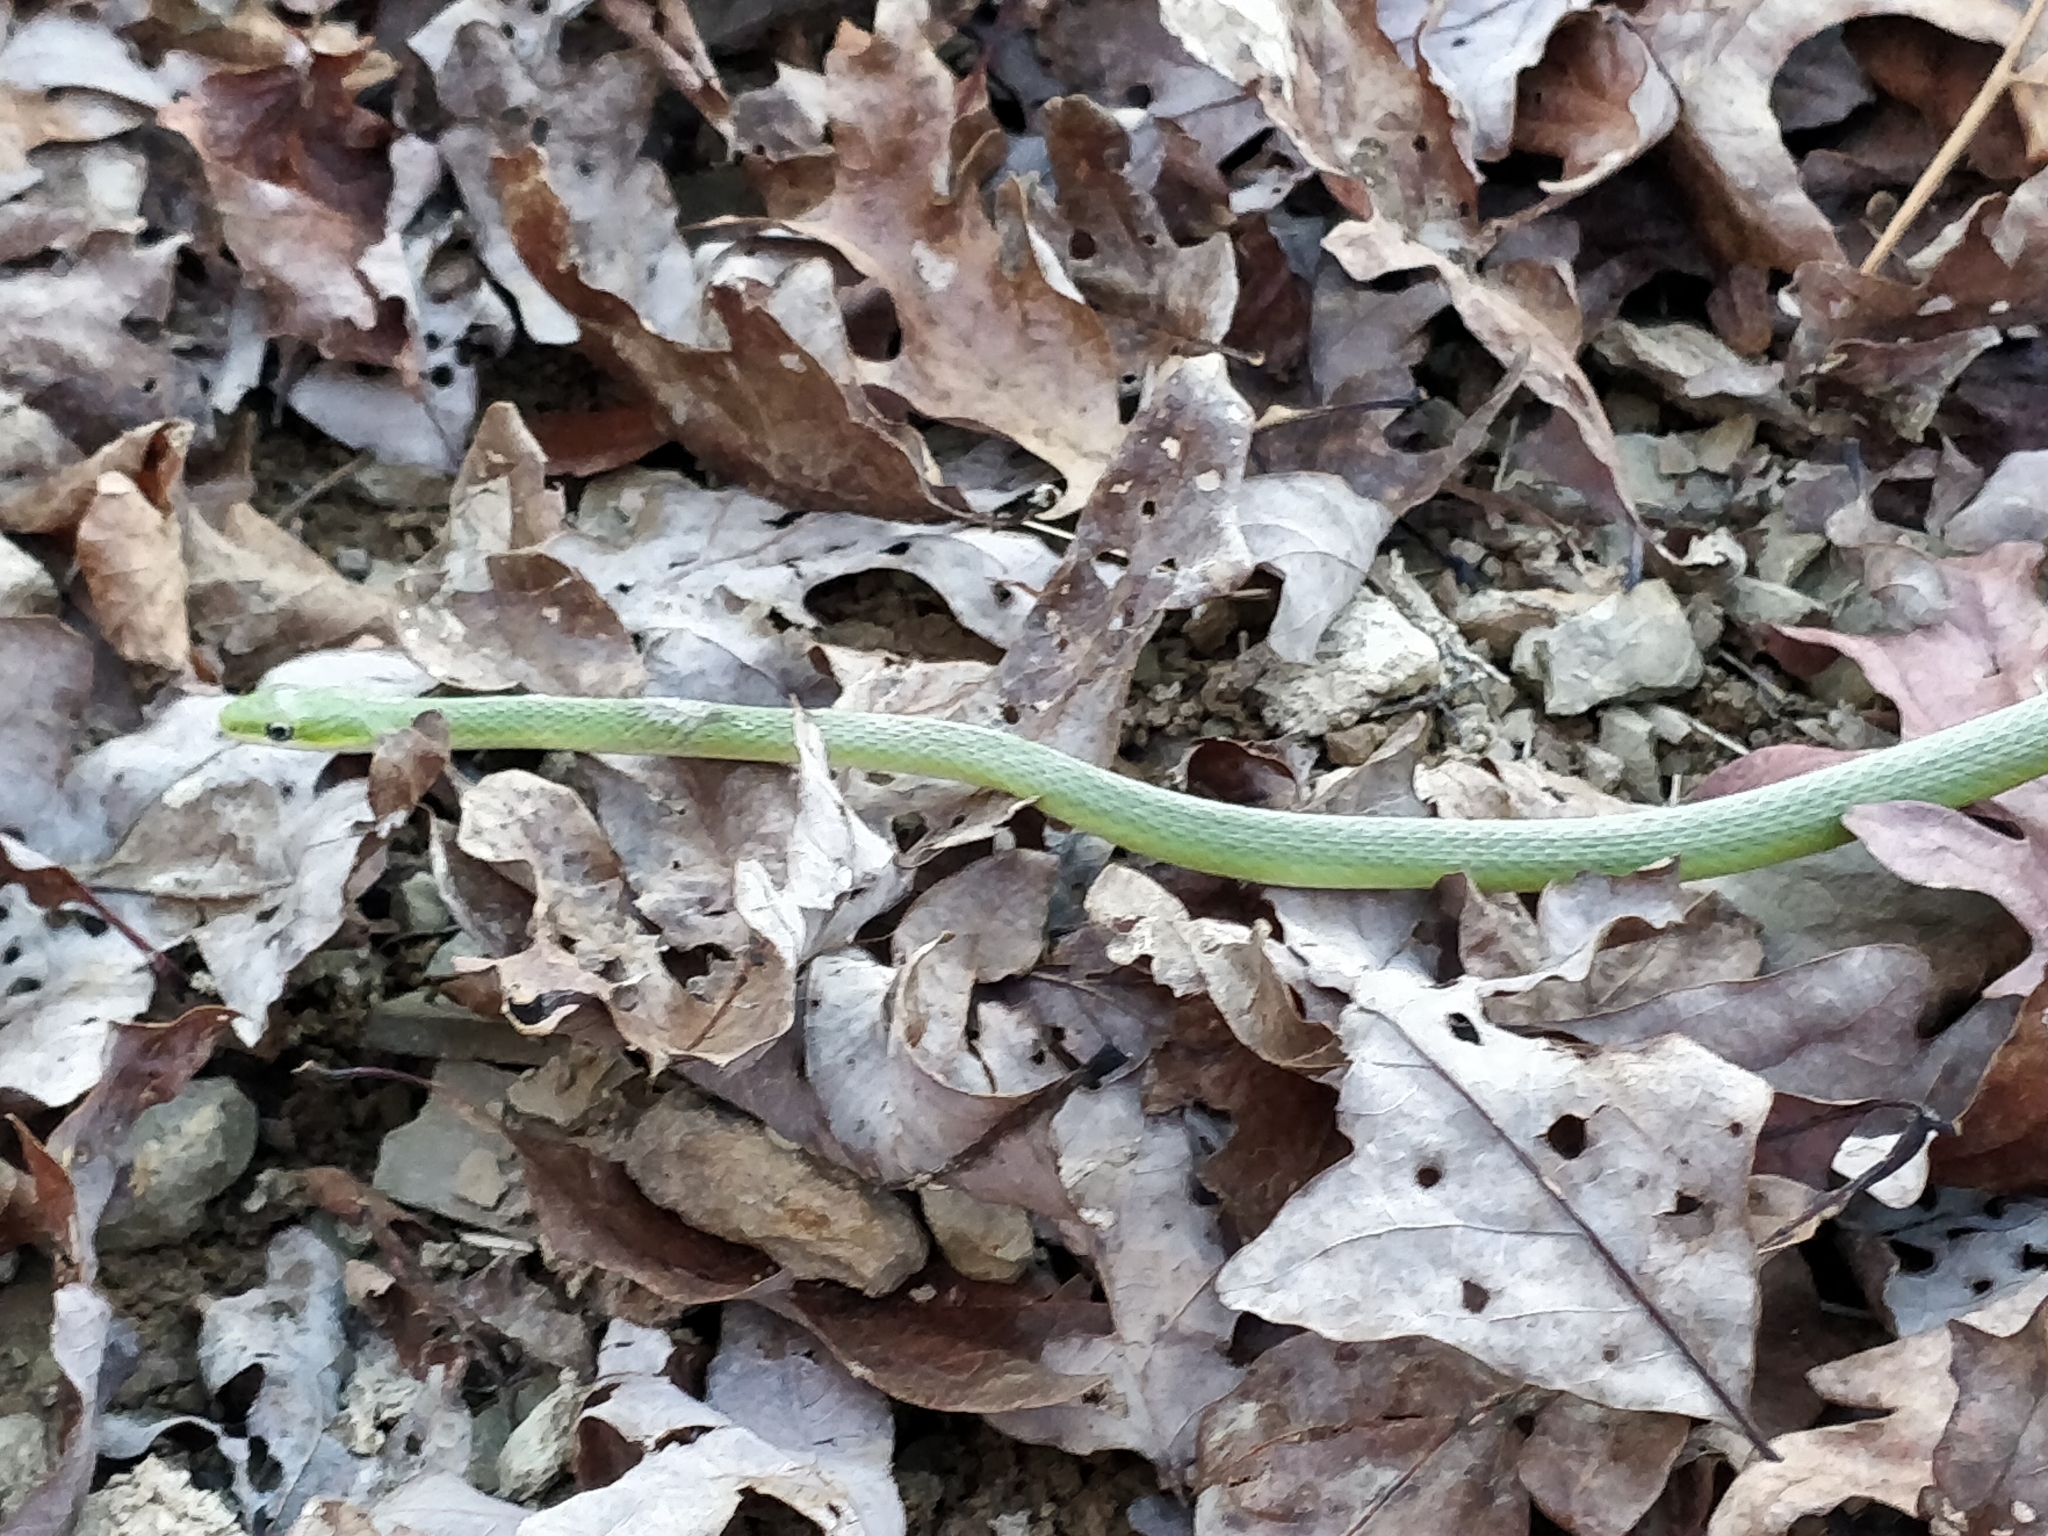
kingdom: Animalia
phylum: Chordata
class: Squamata
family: Colubridae
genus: Opheodrys
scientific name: Opheodrys aestivus
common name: Rough greensnake
